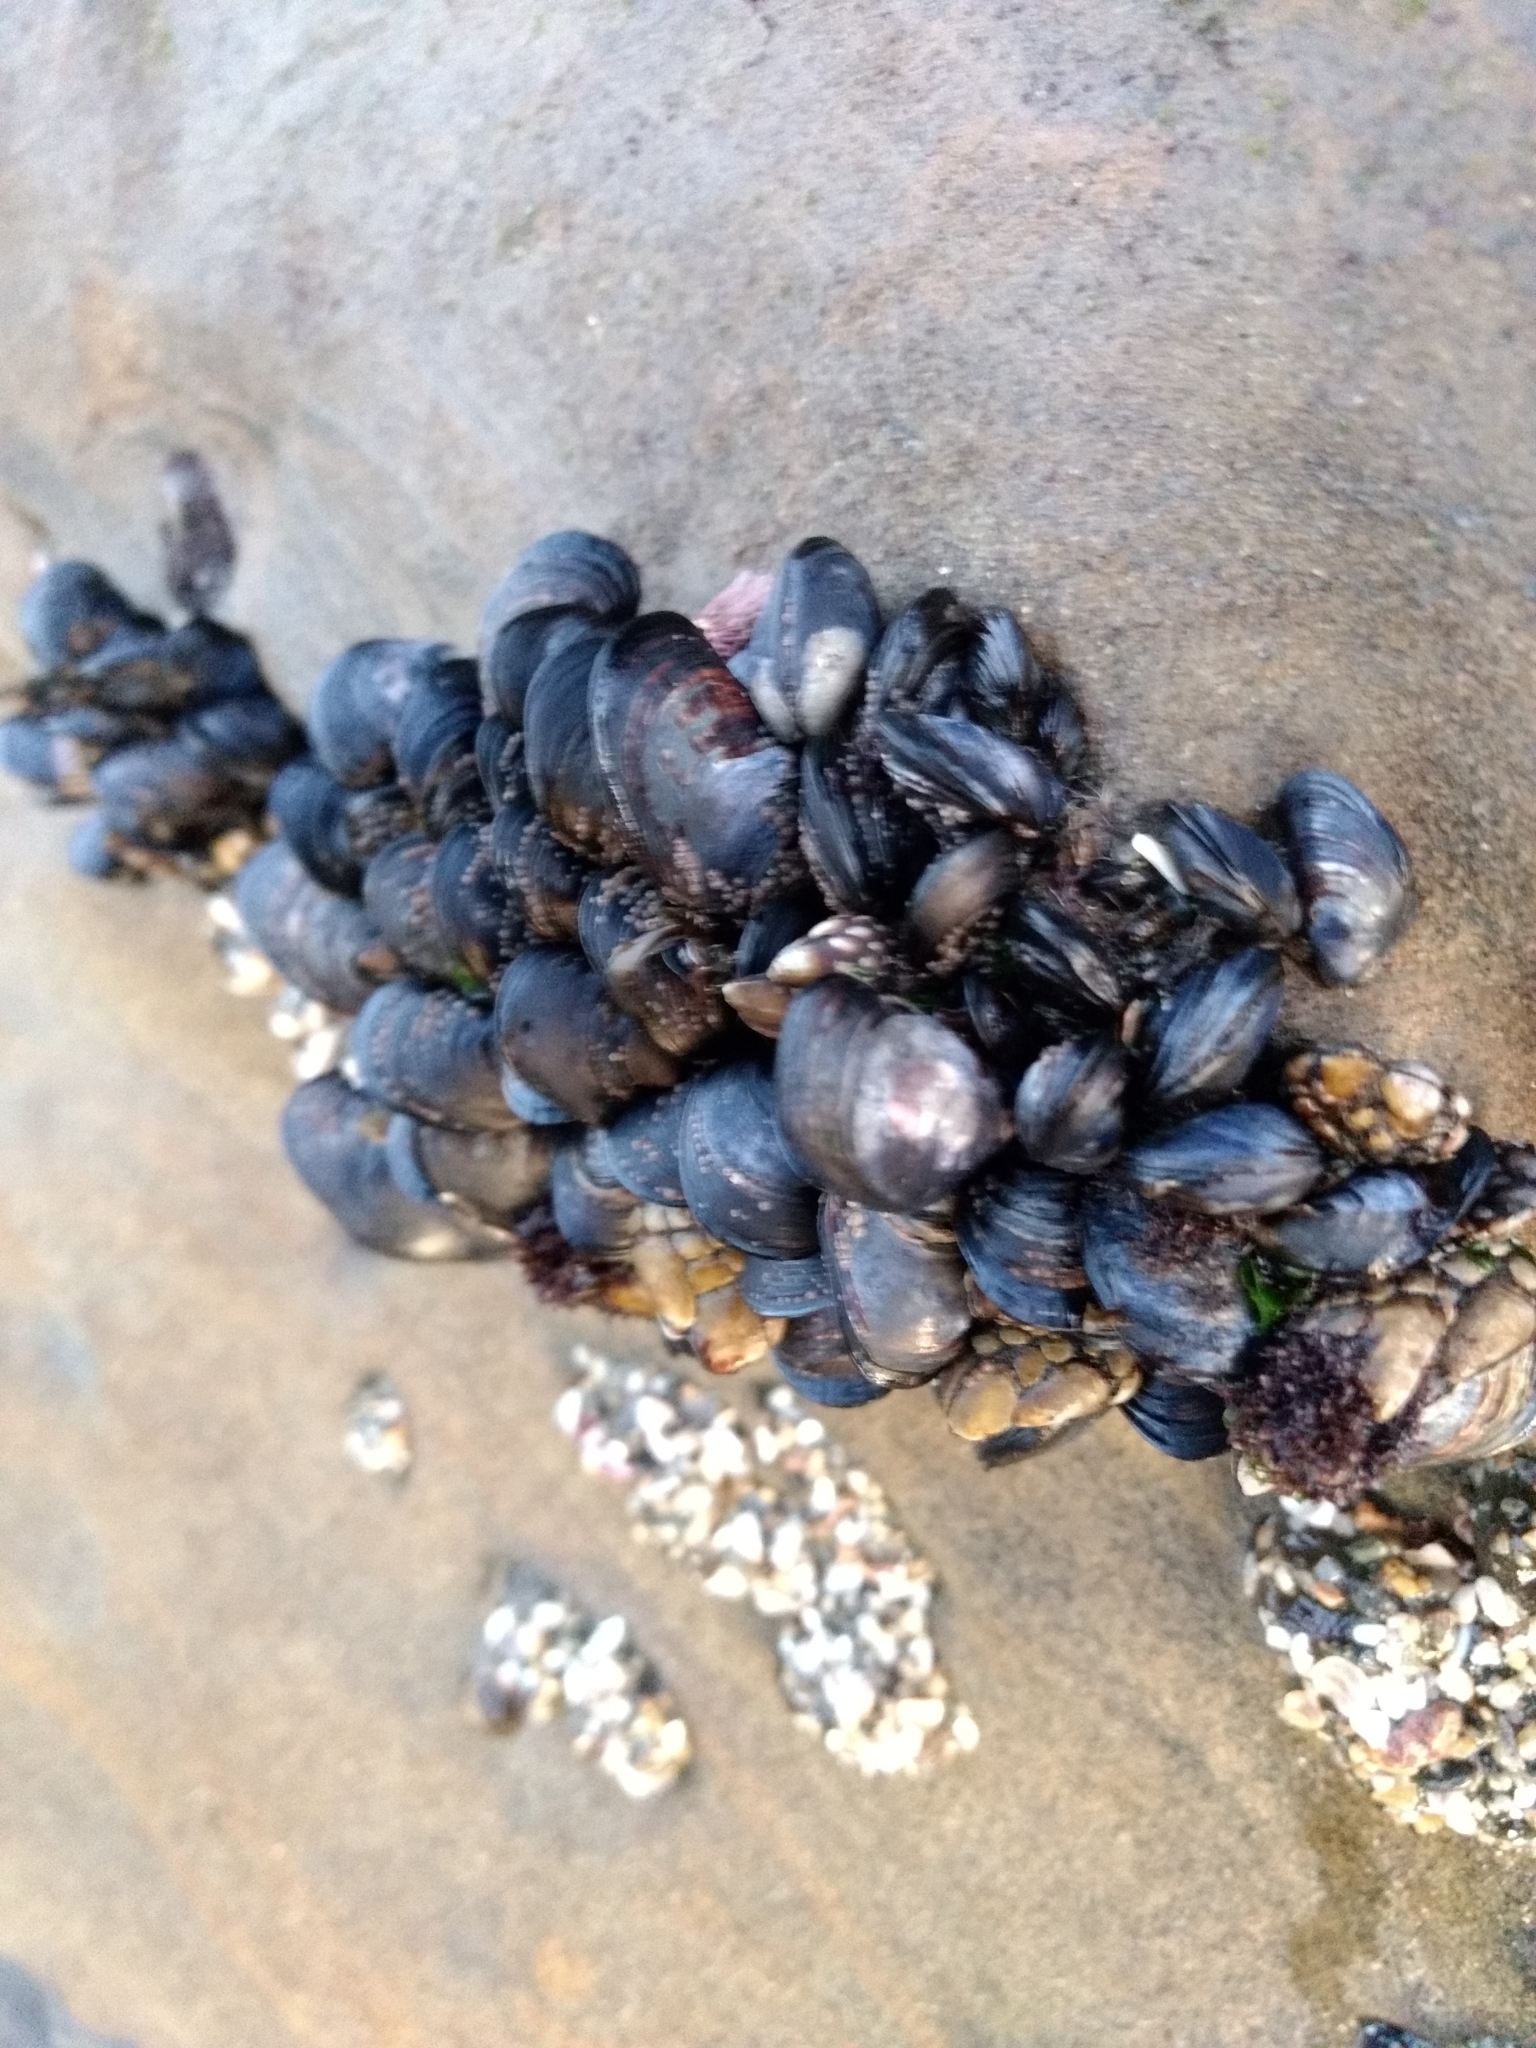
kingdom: Animalia
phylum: Mollusca
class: Bivalvia
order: Mytilida
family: Mytilidae
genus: Mytilus
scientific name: Mytilus californianus
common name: California mussel
